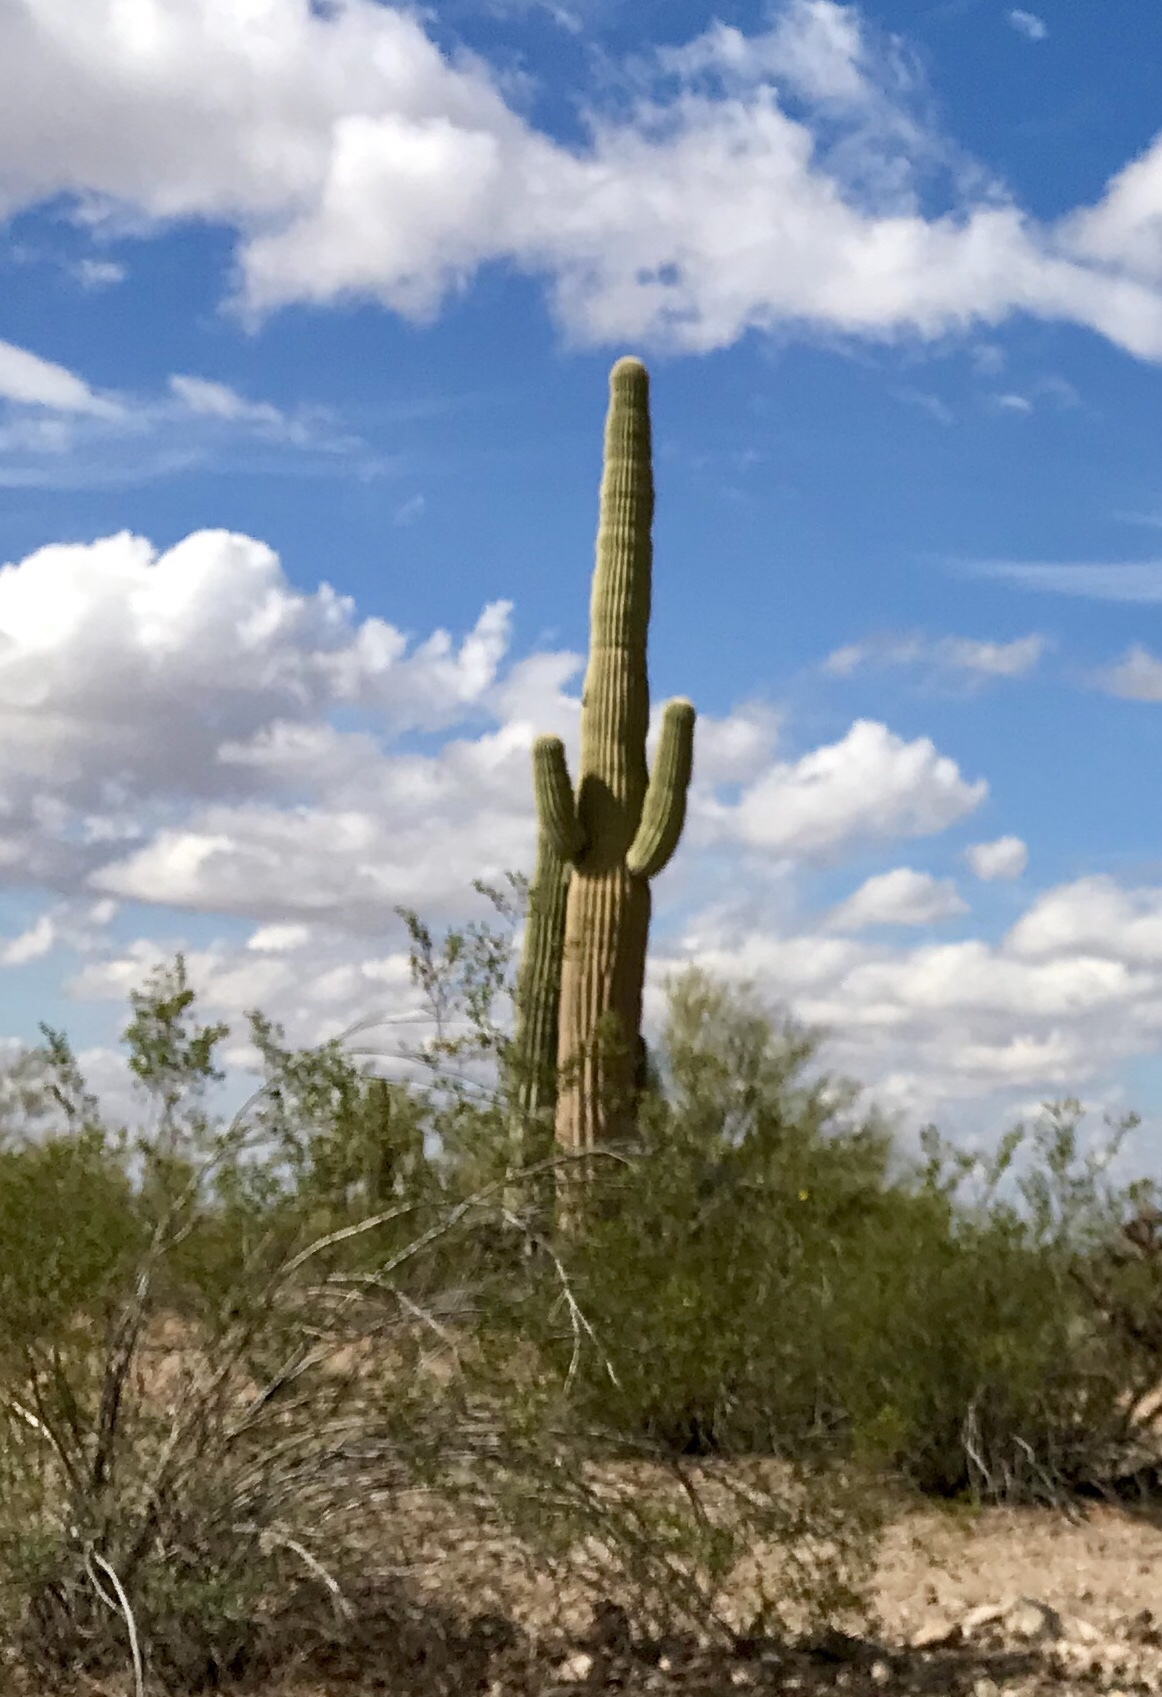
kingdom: Plantae
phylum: Tracheophyta
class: Magnoliopsida
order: Caryophyllales
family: Cactaceae
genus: Carnegiea
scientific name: Carnegiea gigantea
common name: Saguaro
